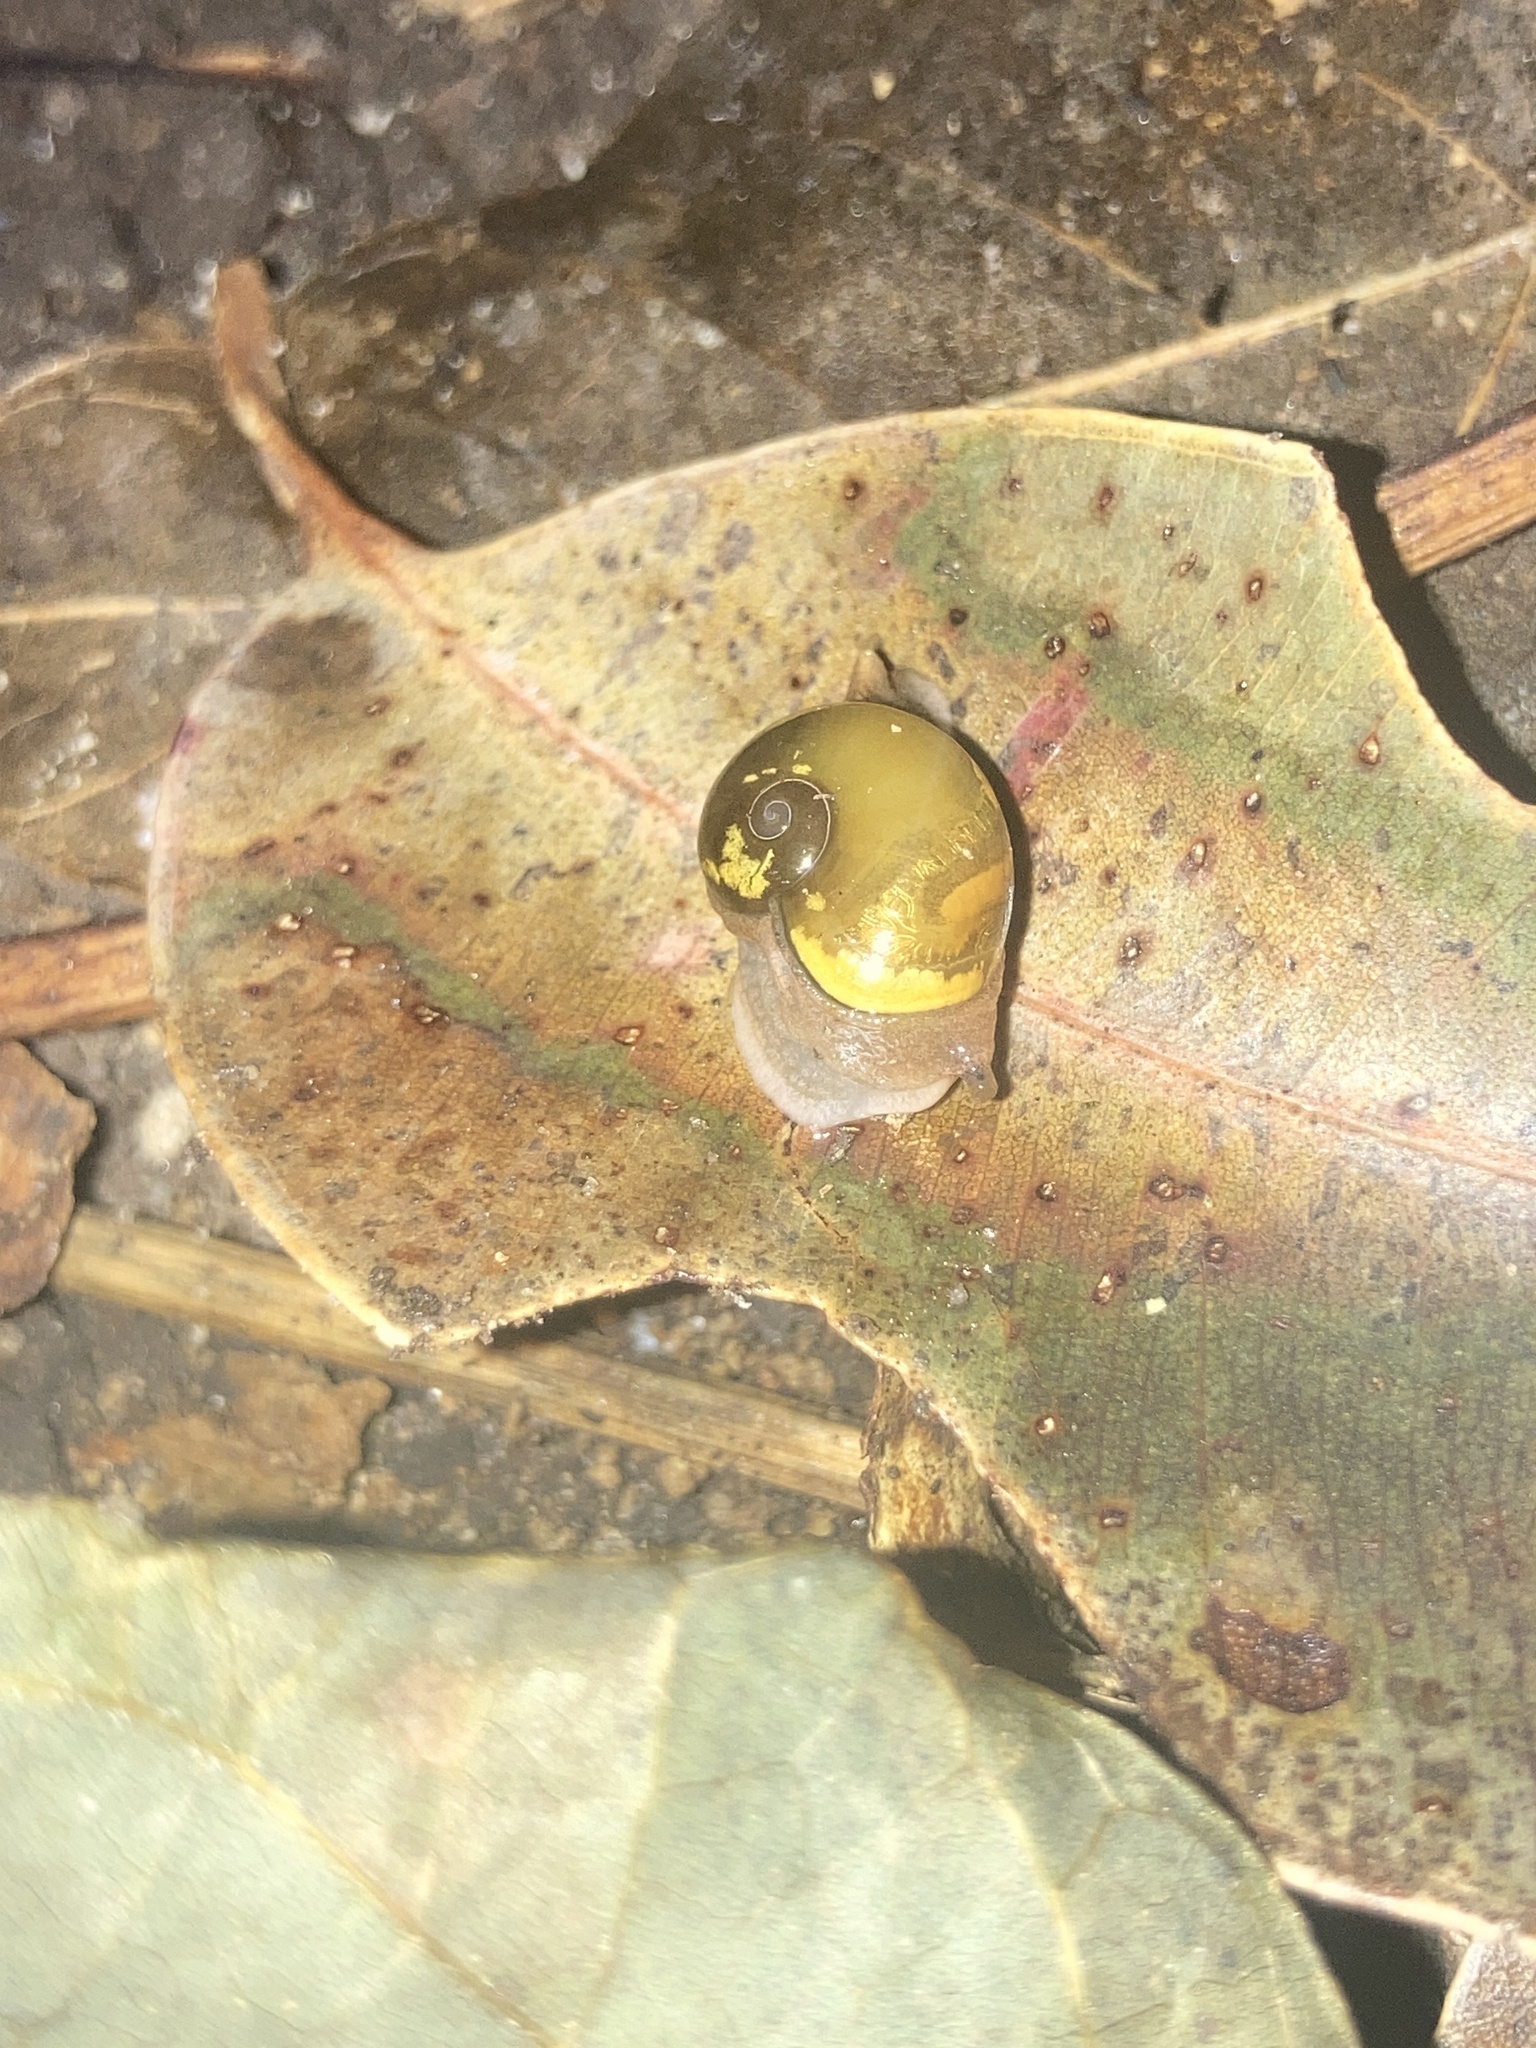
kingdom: Animalia
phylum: Mollusca
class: Gastropoda
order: Stylommatophora
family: Helicarionidae
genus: Helicarion
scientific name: Helicarion mastersi
